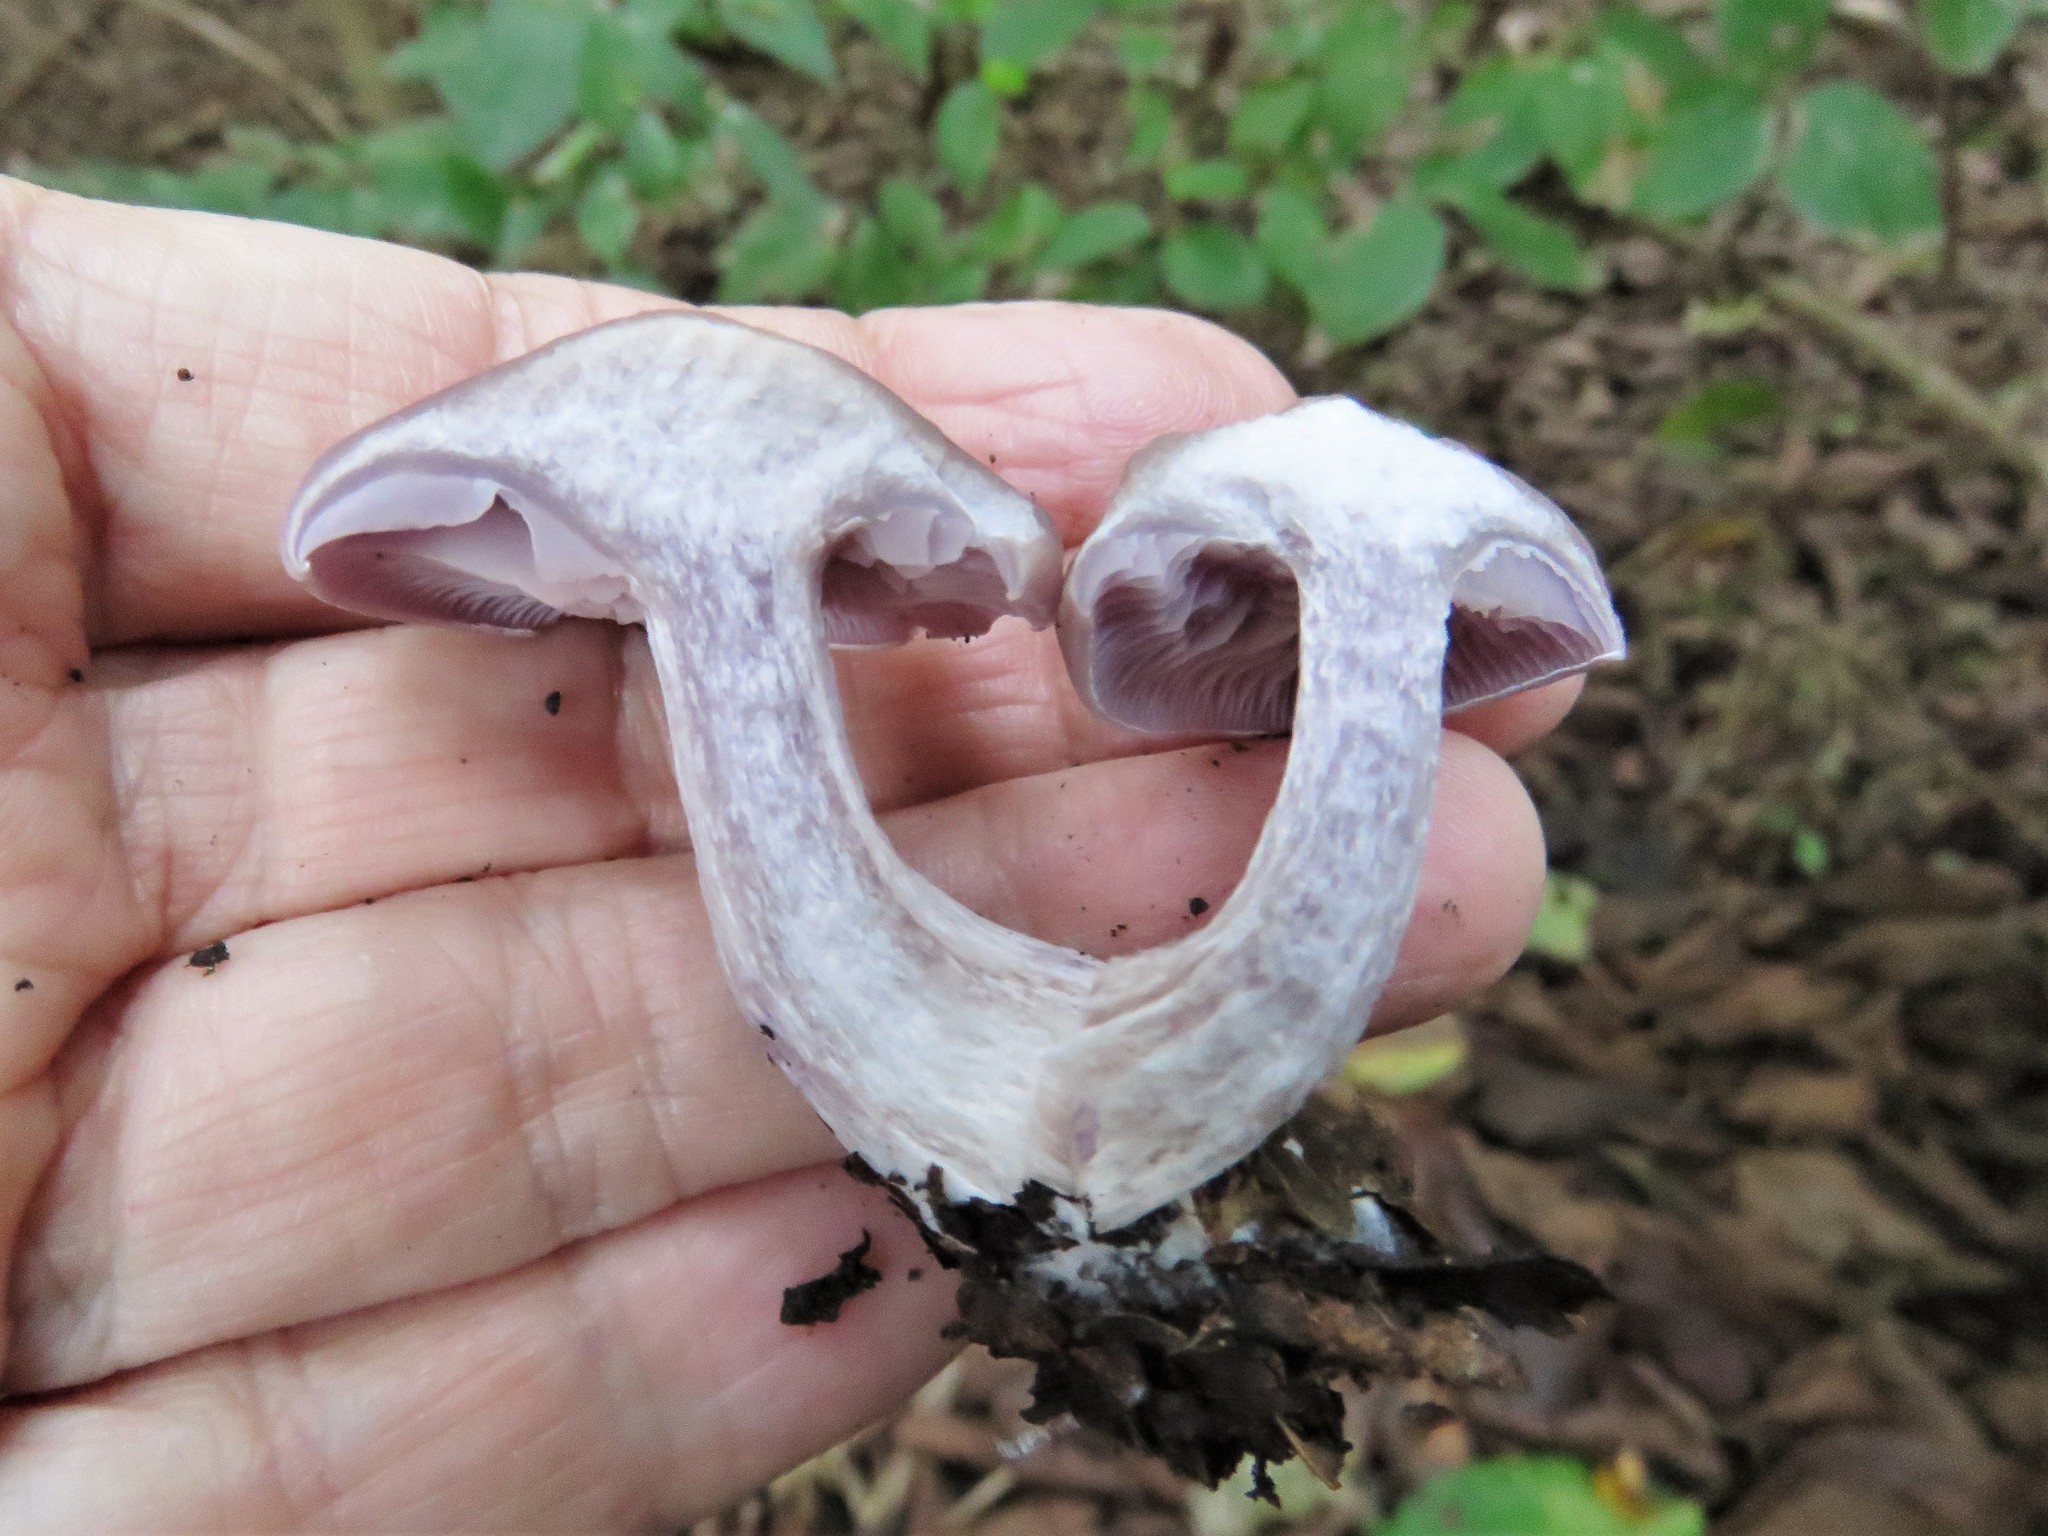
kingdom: Fungi
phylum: Basidiomycota
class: Agaricomycetes
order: Agaricales
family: Tricholomataceae
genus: Collybia
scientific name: Collybia
